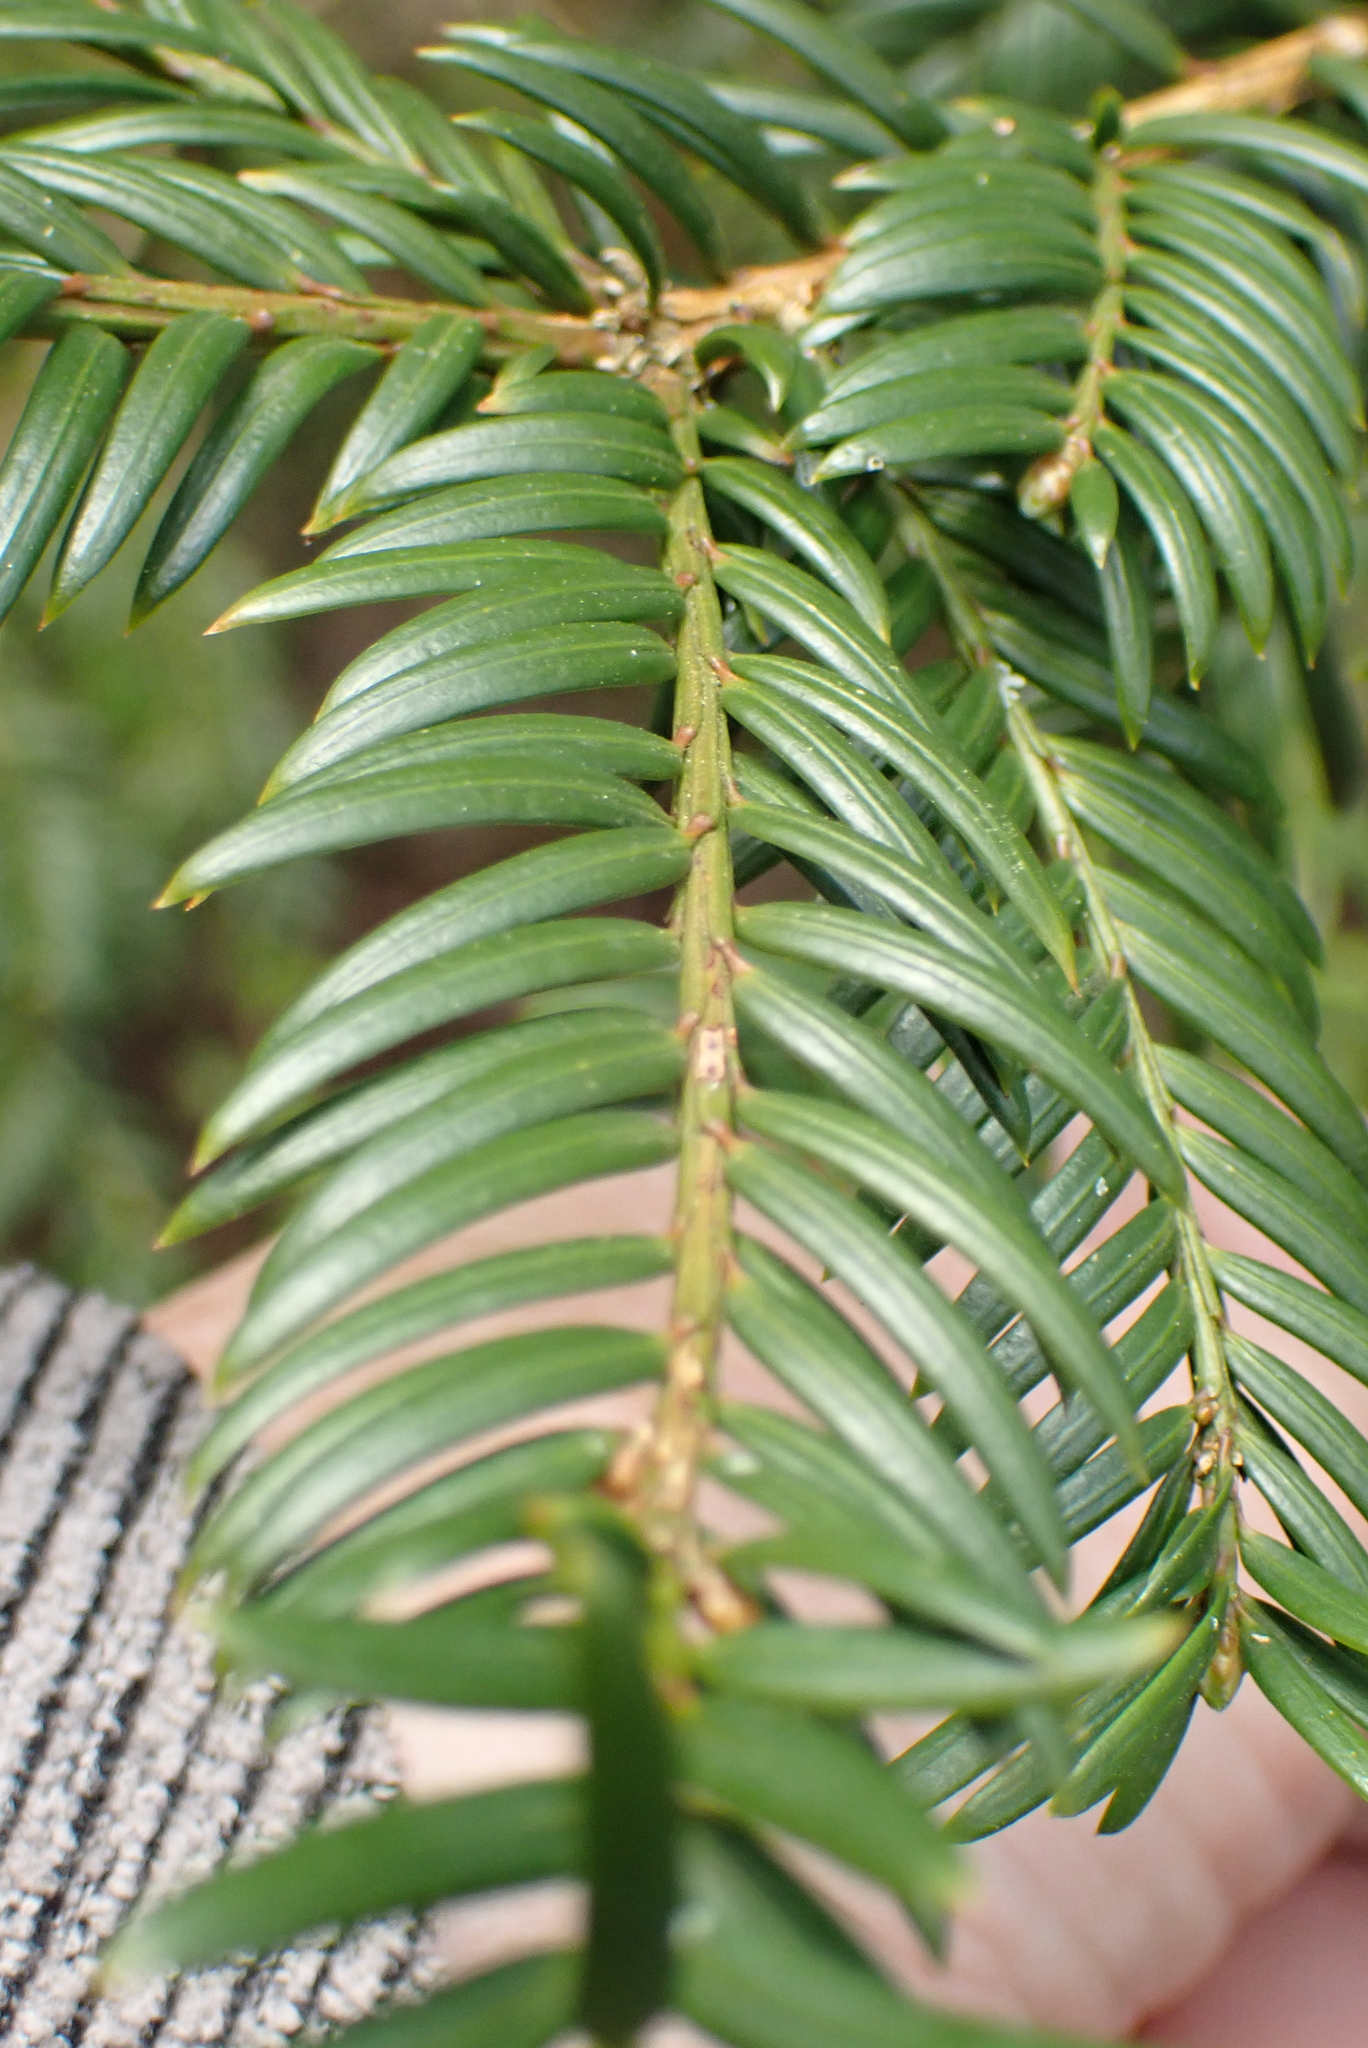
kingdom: Plantae
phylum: Tracheophyta
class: Pinopsida
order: Pinales
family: Taxaceae
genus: Taxus
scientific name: Taxus baccata
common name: Yew
